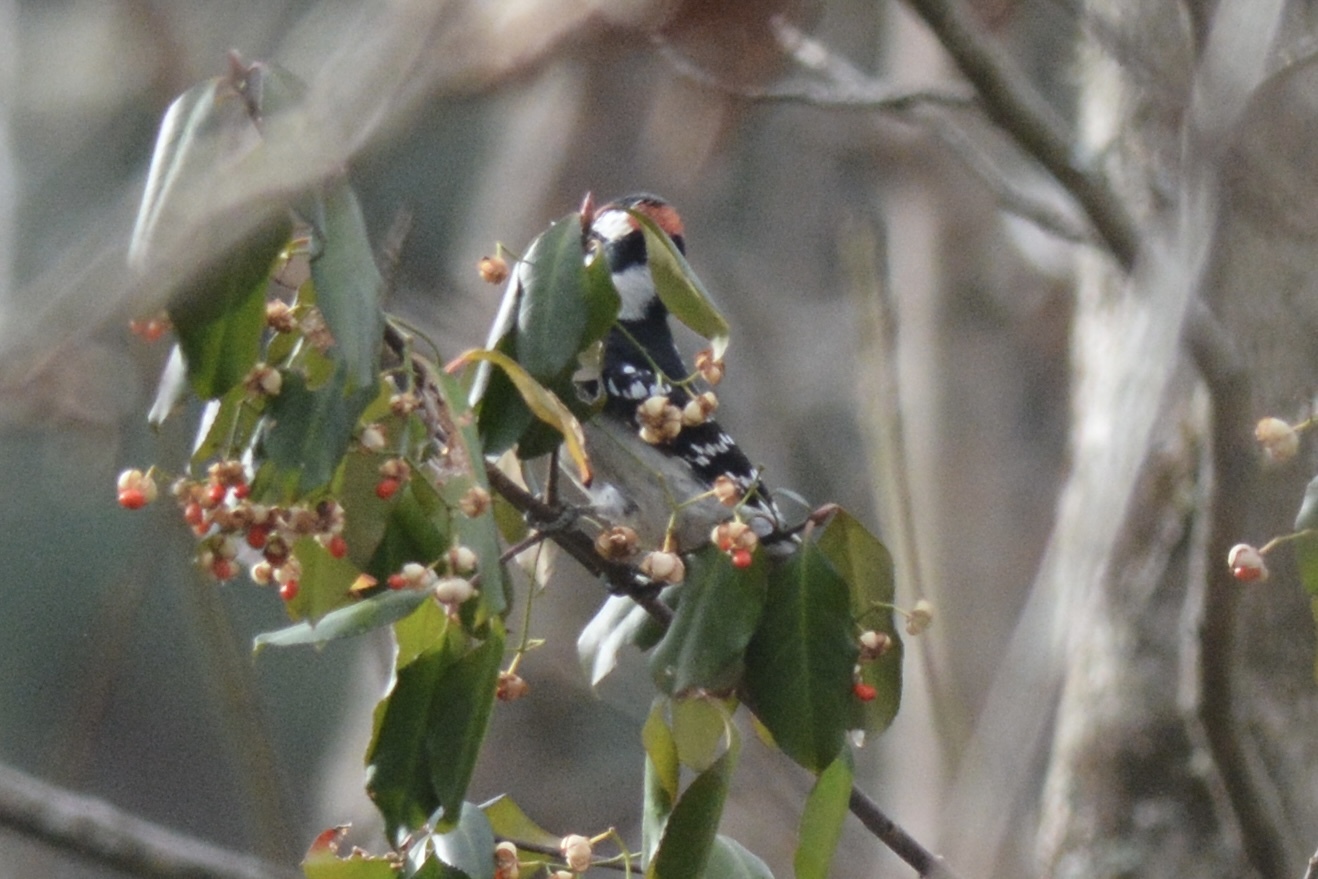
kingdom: Animalia
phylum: Chordata
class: Aves
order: Piciformes
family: Picidae
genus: Dryobates
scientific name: Dryobates pubescens
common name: Downy woodpecker
